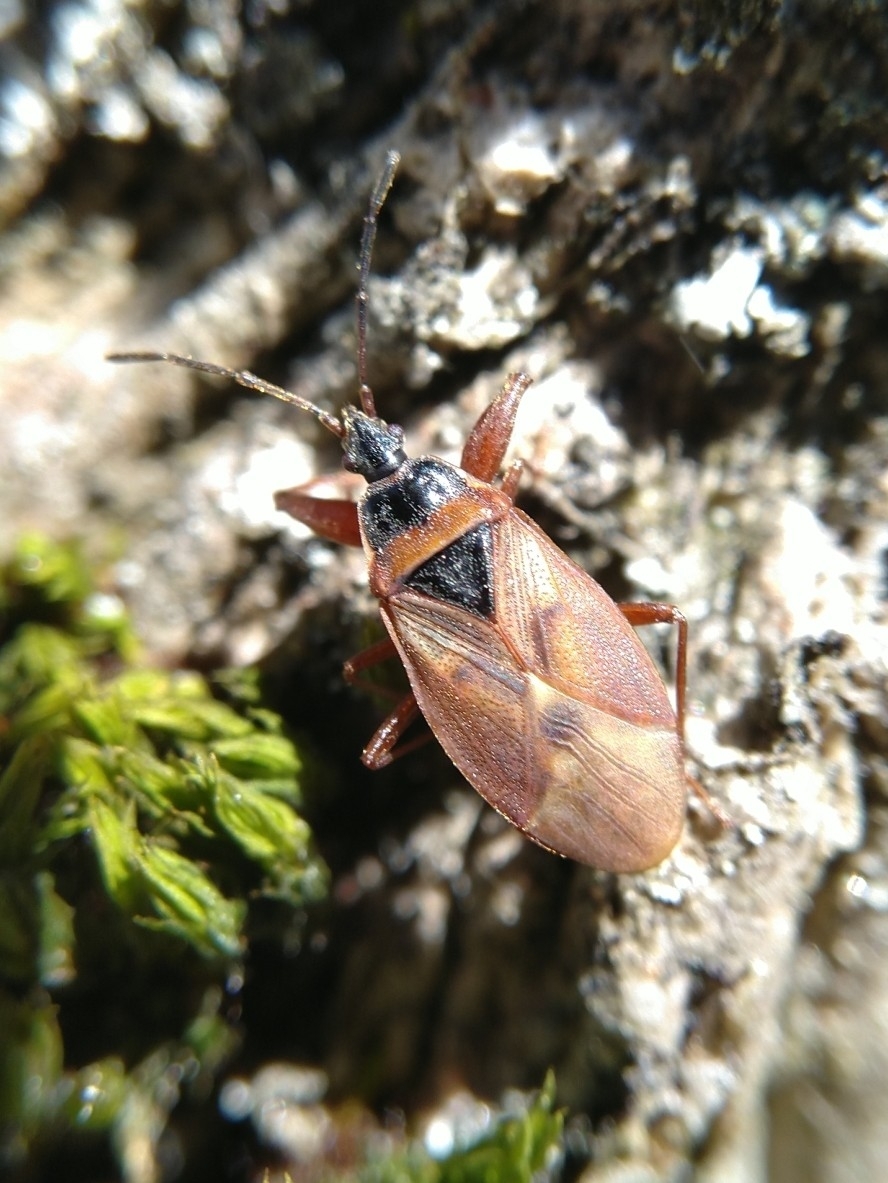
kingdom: Animalia
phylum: Arthropoda
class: Insecta
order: Hemiptera
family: Rhyparochromidae
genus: Gastrodes
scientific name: Gastrodes abietum
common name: Spruce cone bug
